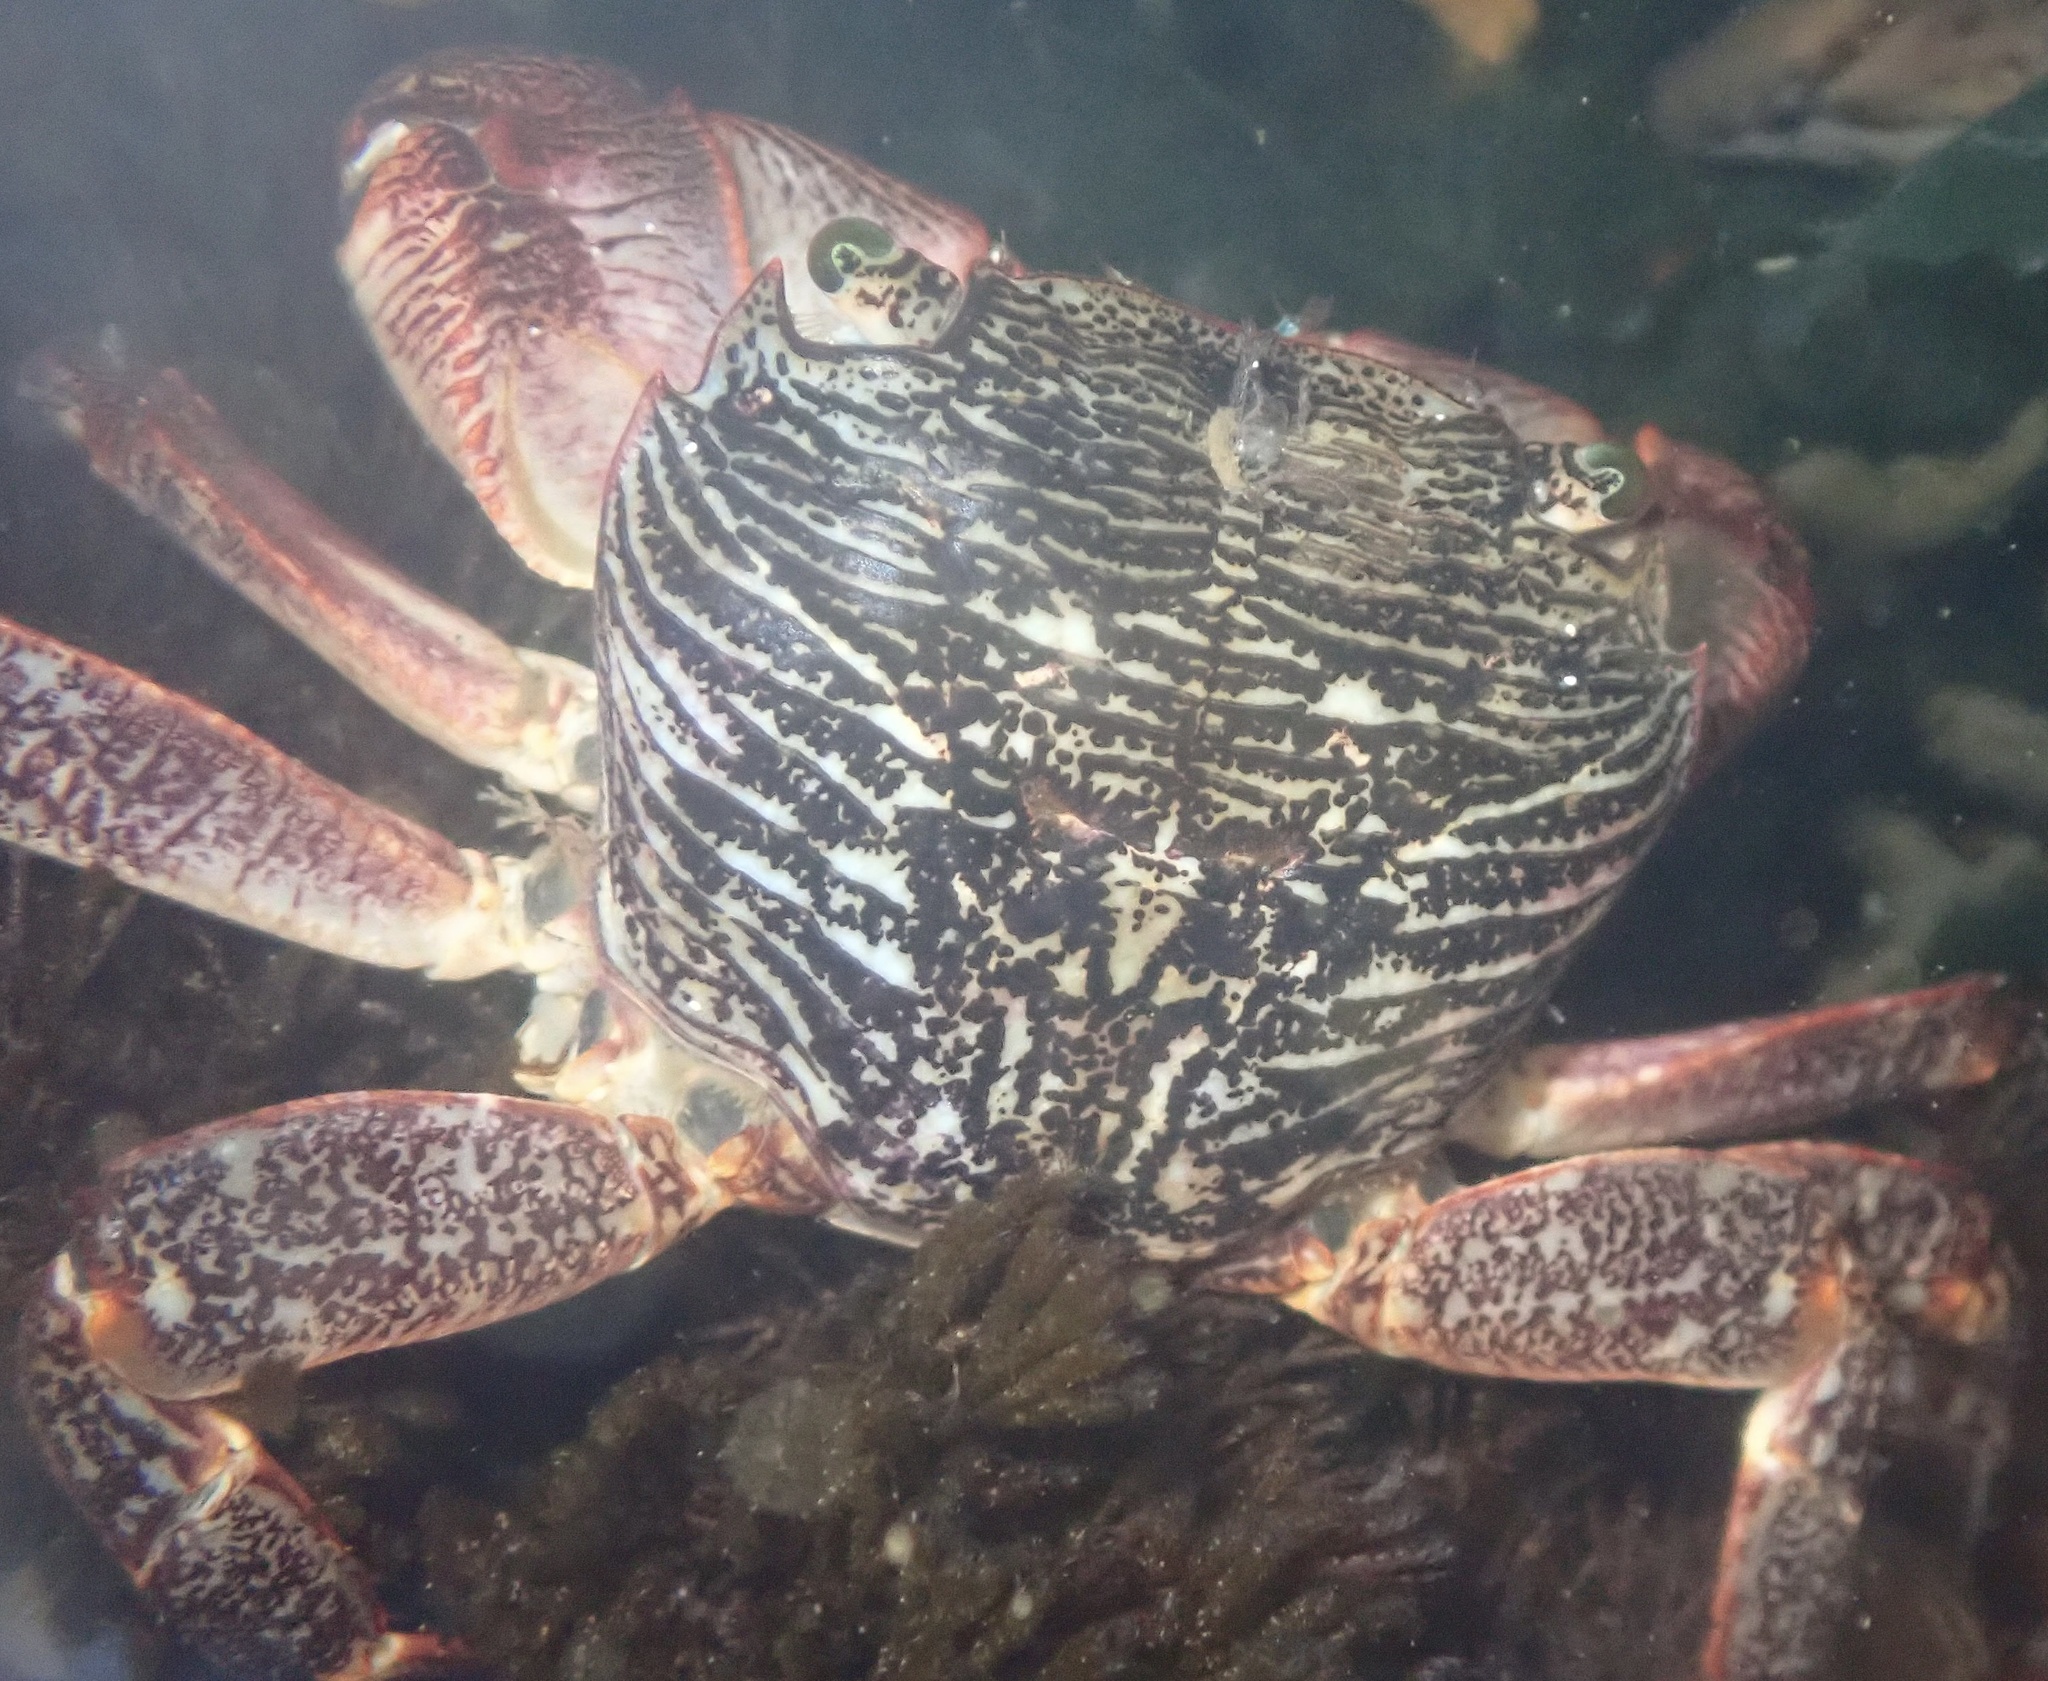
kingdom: Animalia
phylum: Arthropoda
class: Malacostraca
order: Decapoda
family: Grapsidae
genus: Pachygrapsus
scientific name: Pachygrapsus crassipes
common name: Striped shore crab
